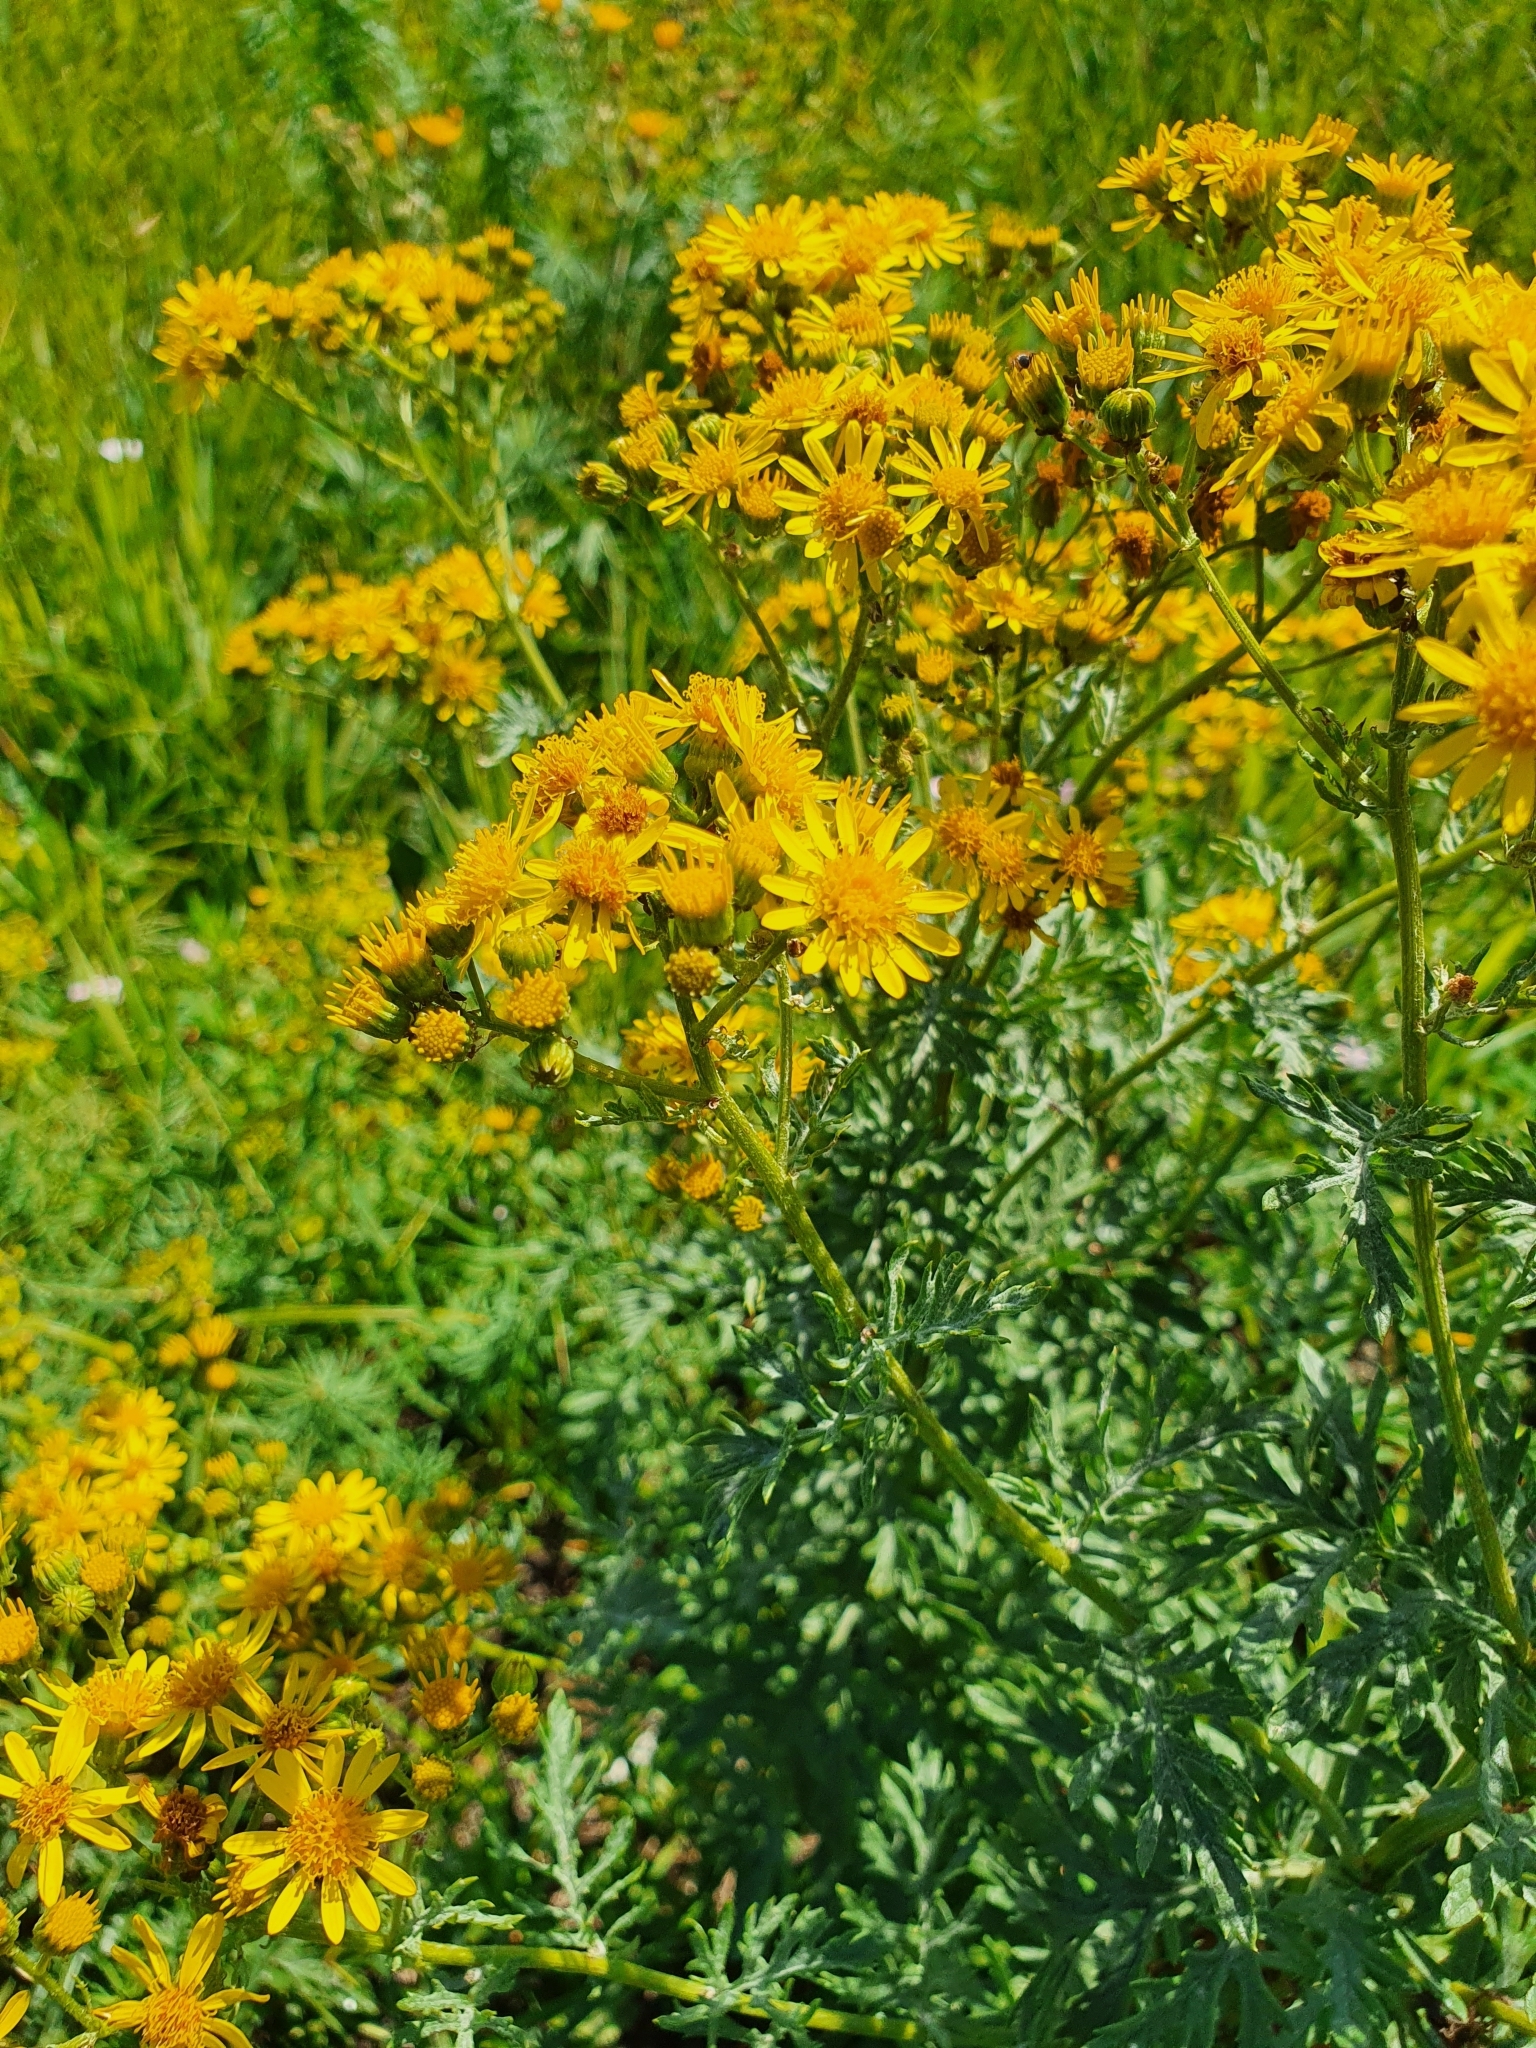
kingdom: Plantae
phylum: Tracheophyta
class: Magnoliopsida
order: Asterales
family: Asteraceae
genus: Jacobaea
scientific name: Jacobaea erucifolia
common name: Hoary ragwort
